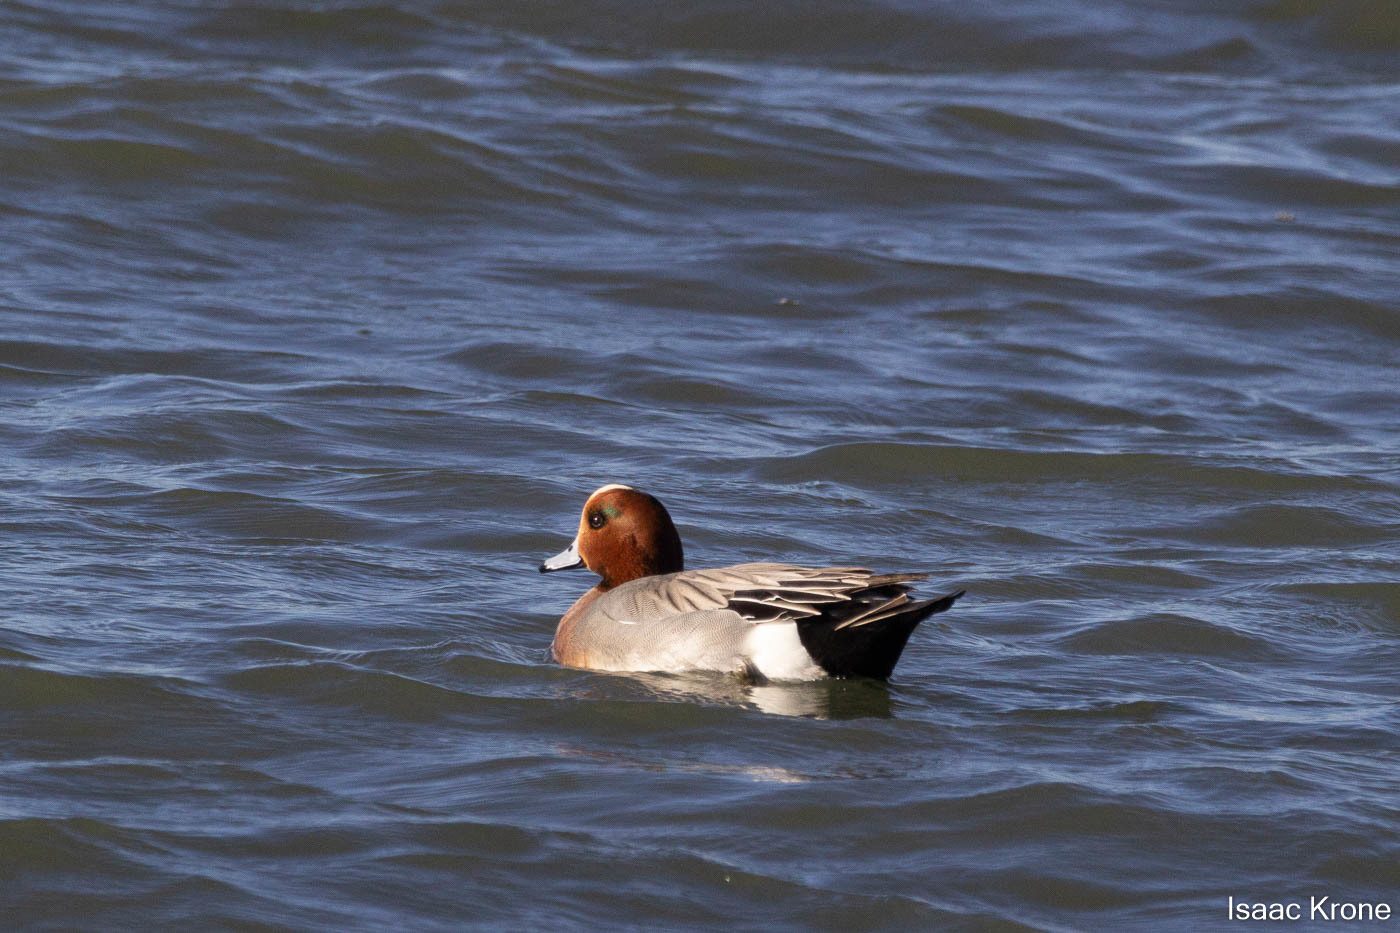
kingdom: Animalia
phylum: Chordata
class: Aves
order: Anseriformes
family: Anatidae
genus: Mareca
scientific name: Mareca penelope
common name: Eurasian wigeon
